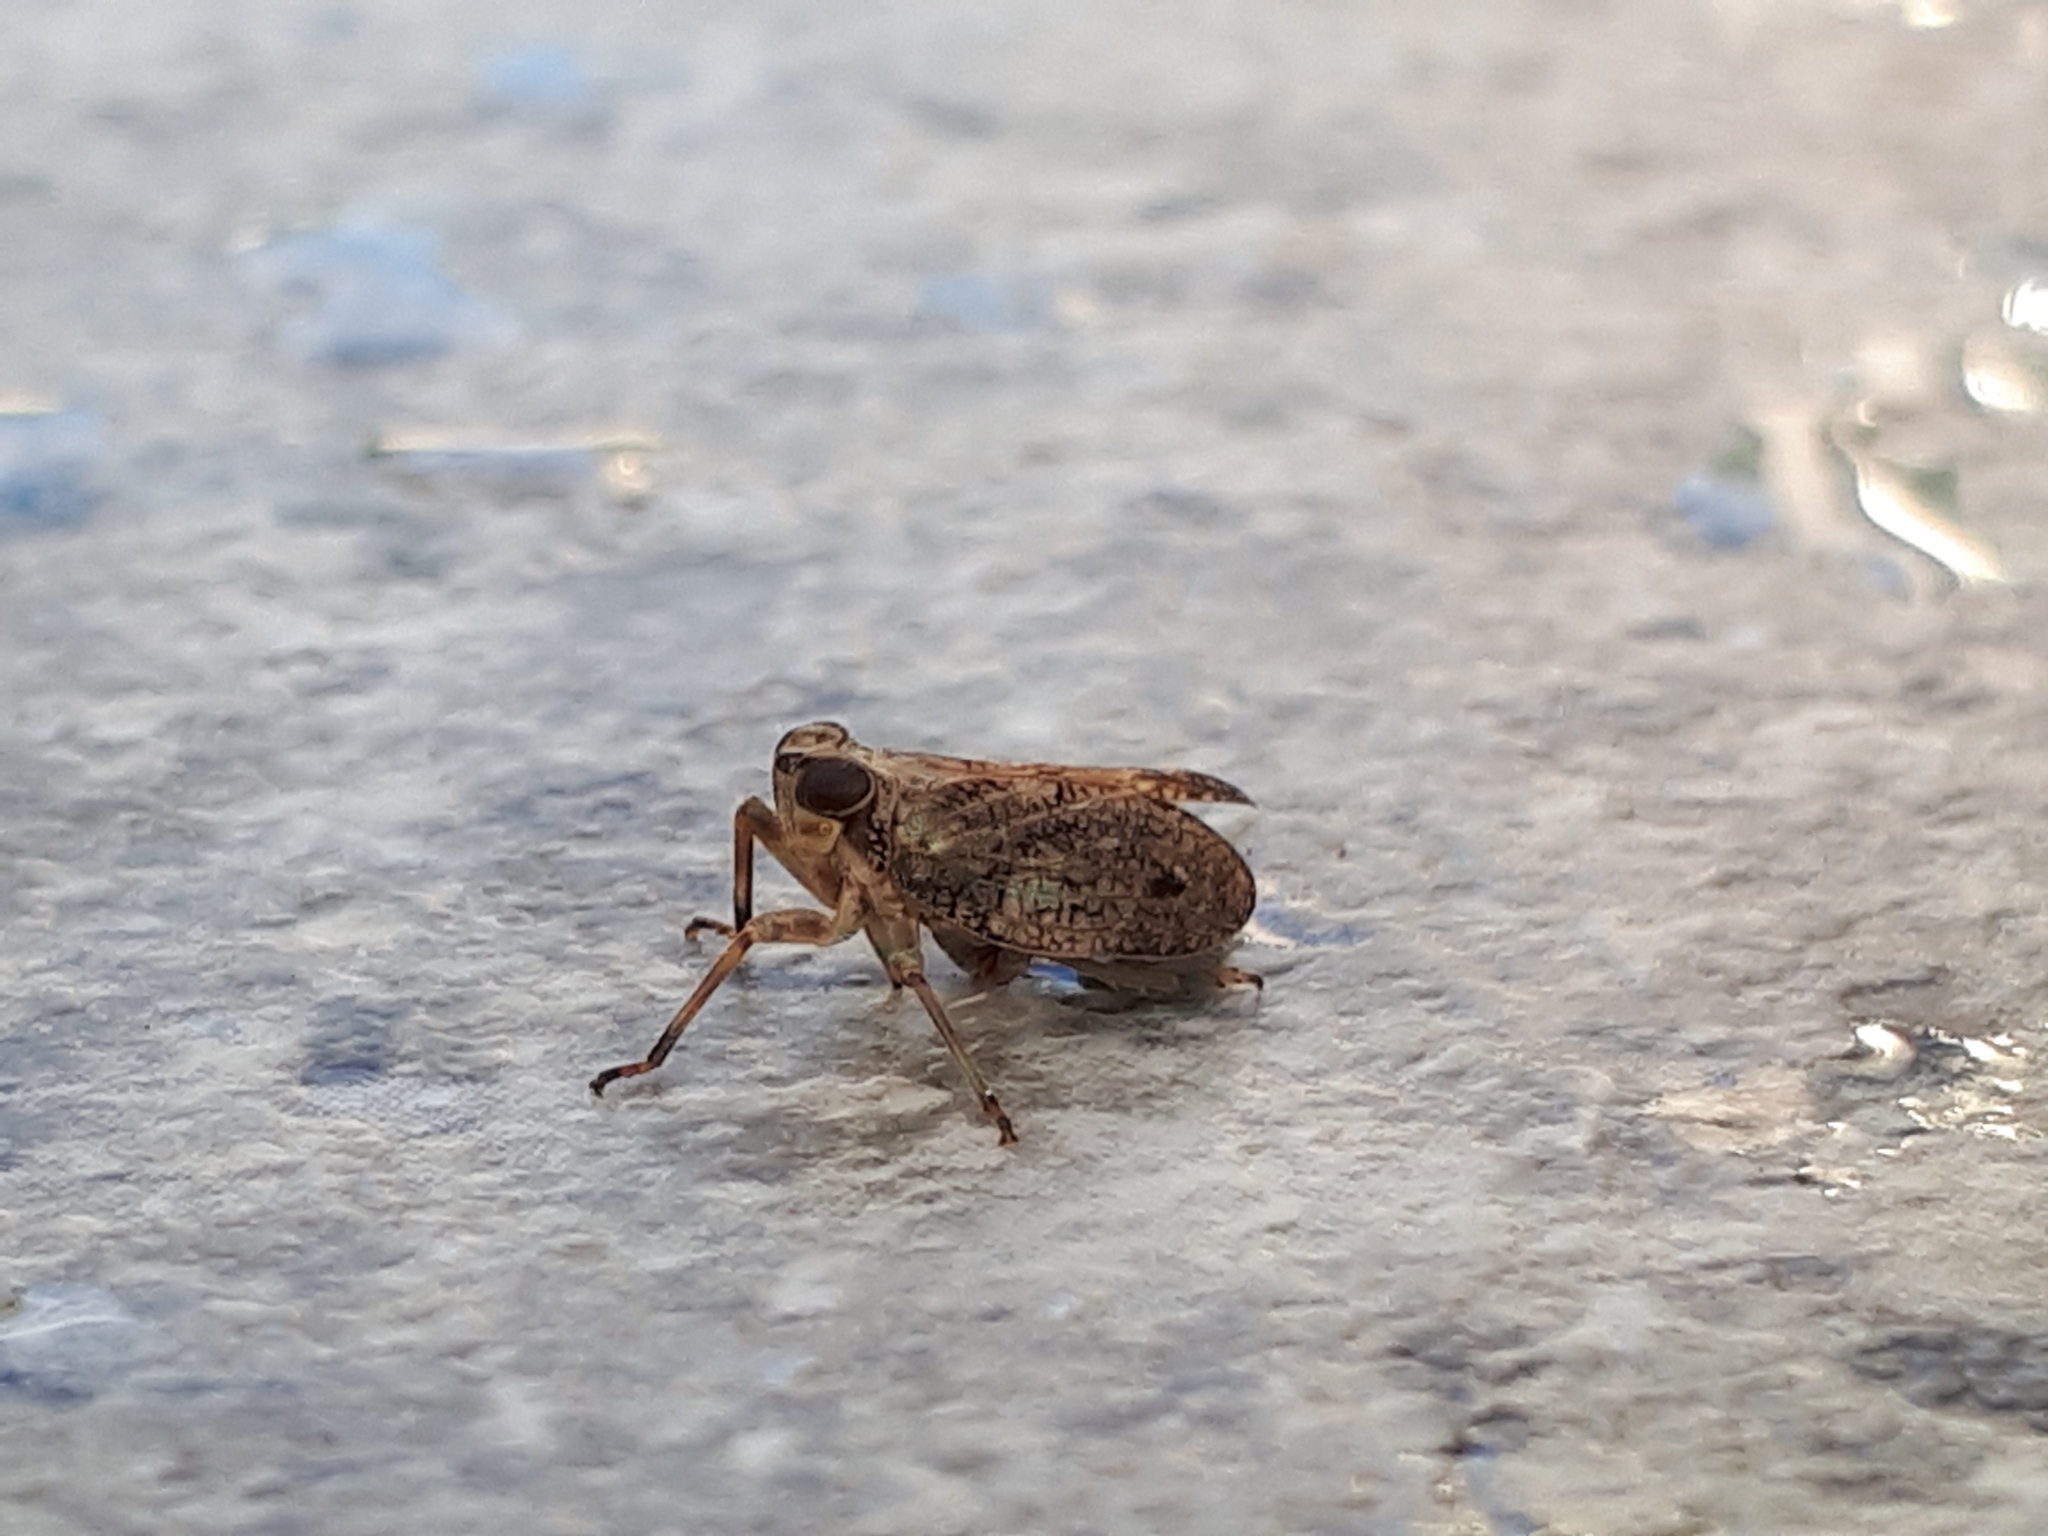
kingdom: Animalia
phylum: Arthropoda
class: Insecta
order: Hemiptera
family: Issidae
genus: Issus
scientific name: Issus coleoptratus
